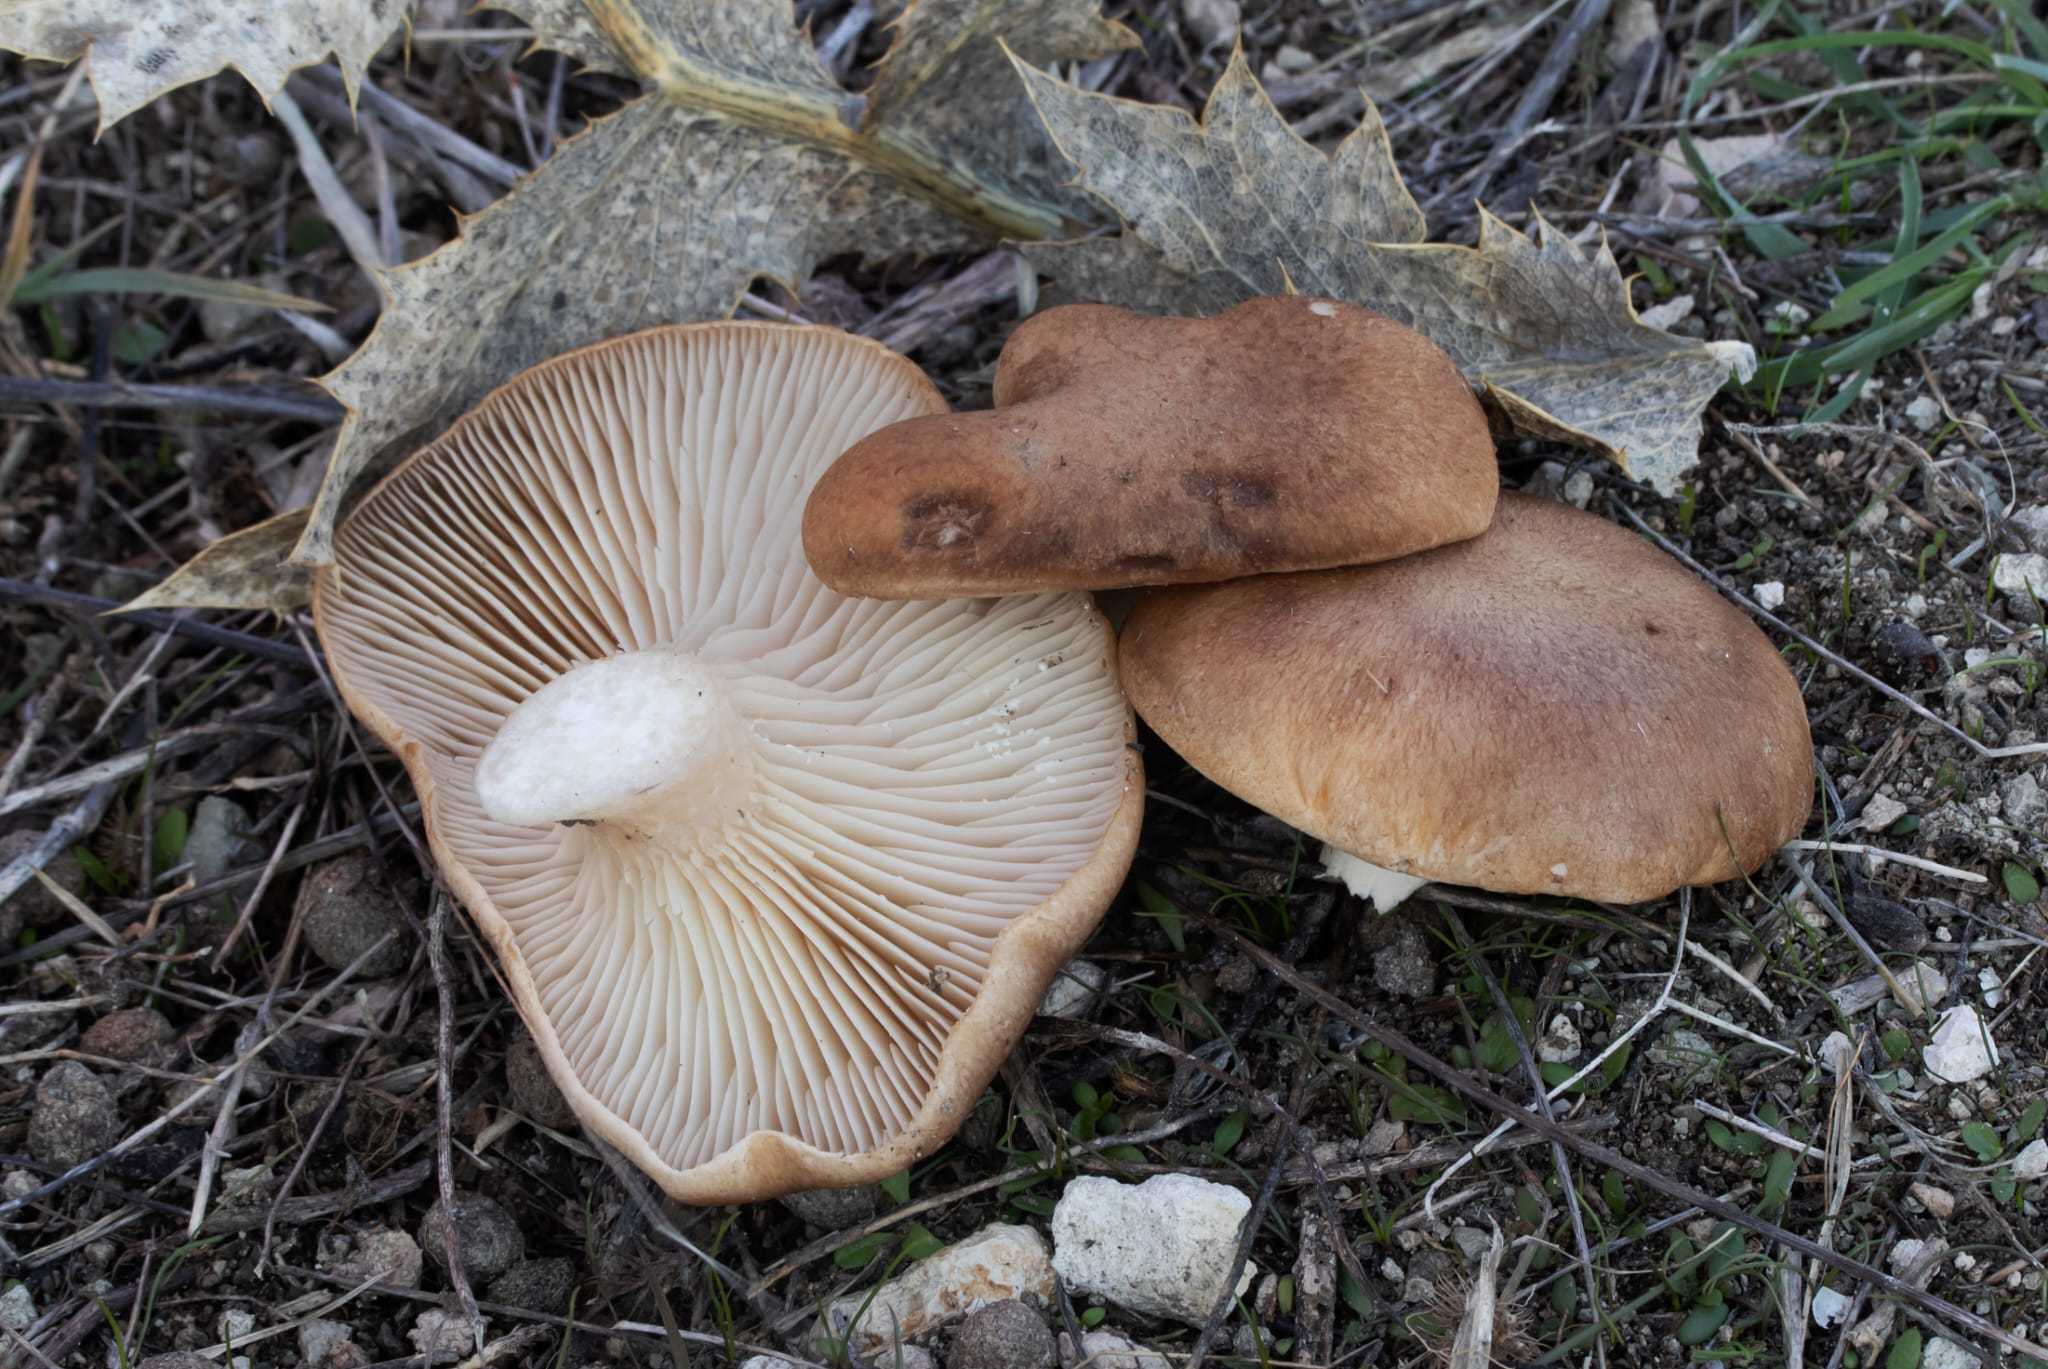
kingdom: Fungi
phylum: Basidiomycota
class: Agaricomycetes
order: Agaricales
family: Pleurotaceae
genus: Pleurotus
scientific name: Pleurotus eryngii
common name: King oyster
